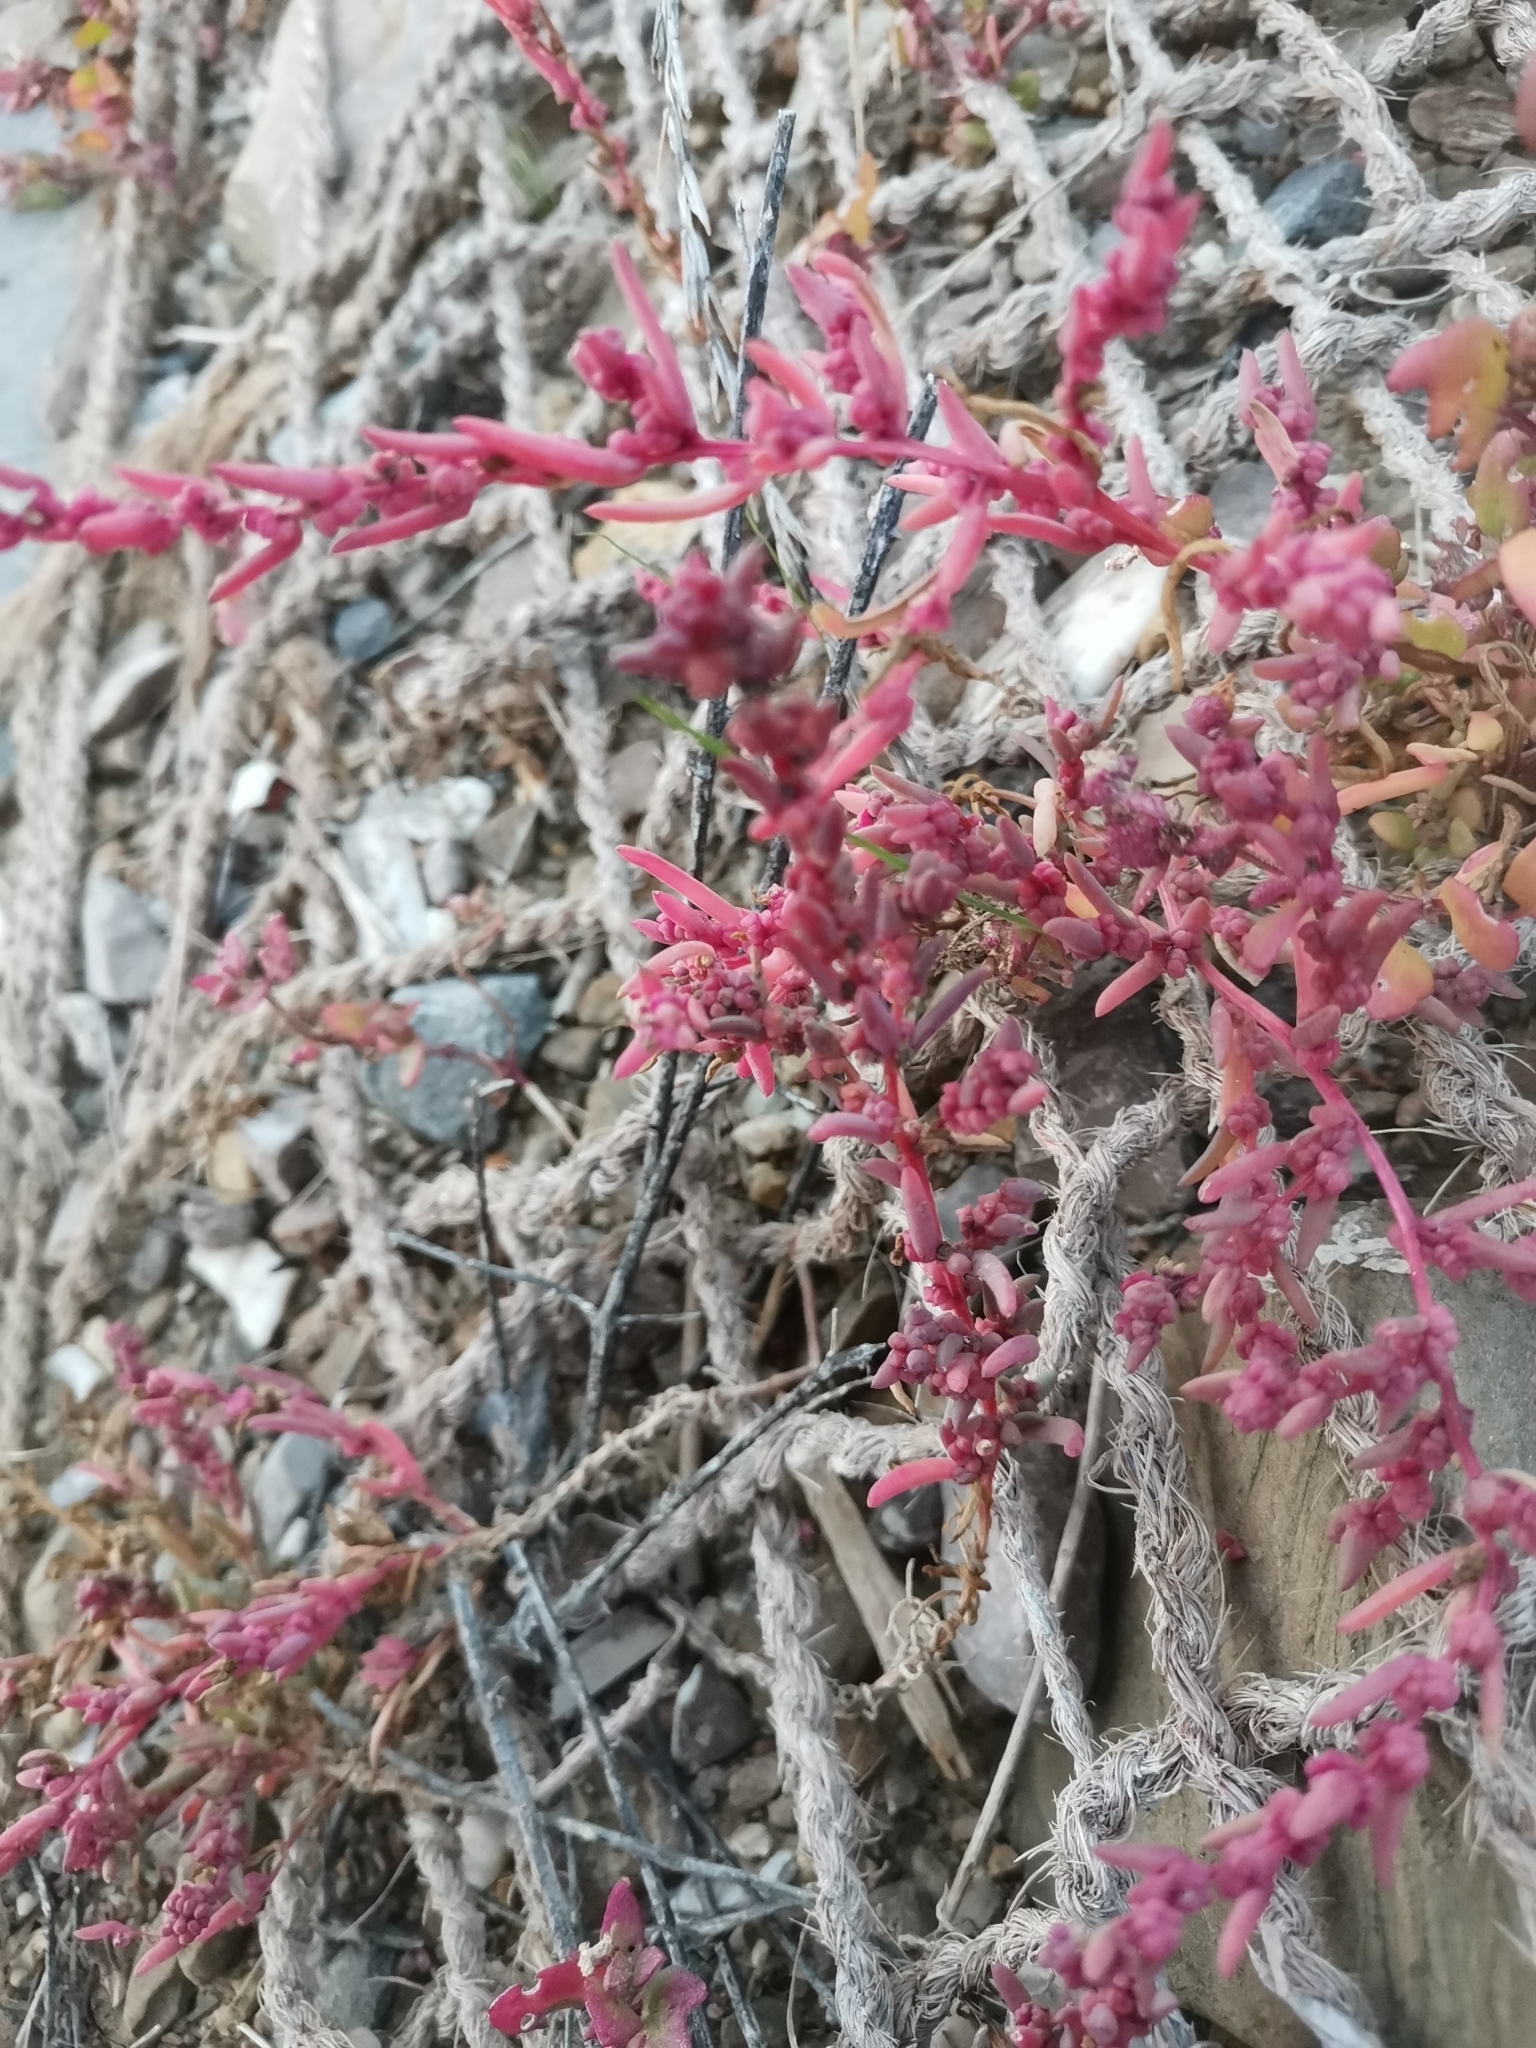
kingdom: Plantae
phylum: Tracheophyta
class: Magnoliopsida
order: Caryophyllales
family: Amaranthaceae
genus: Suaeda
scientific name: Suaeda maritima
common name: Annual sea-blite
